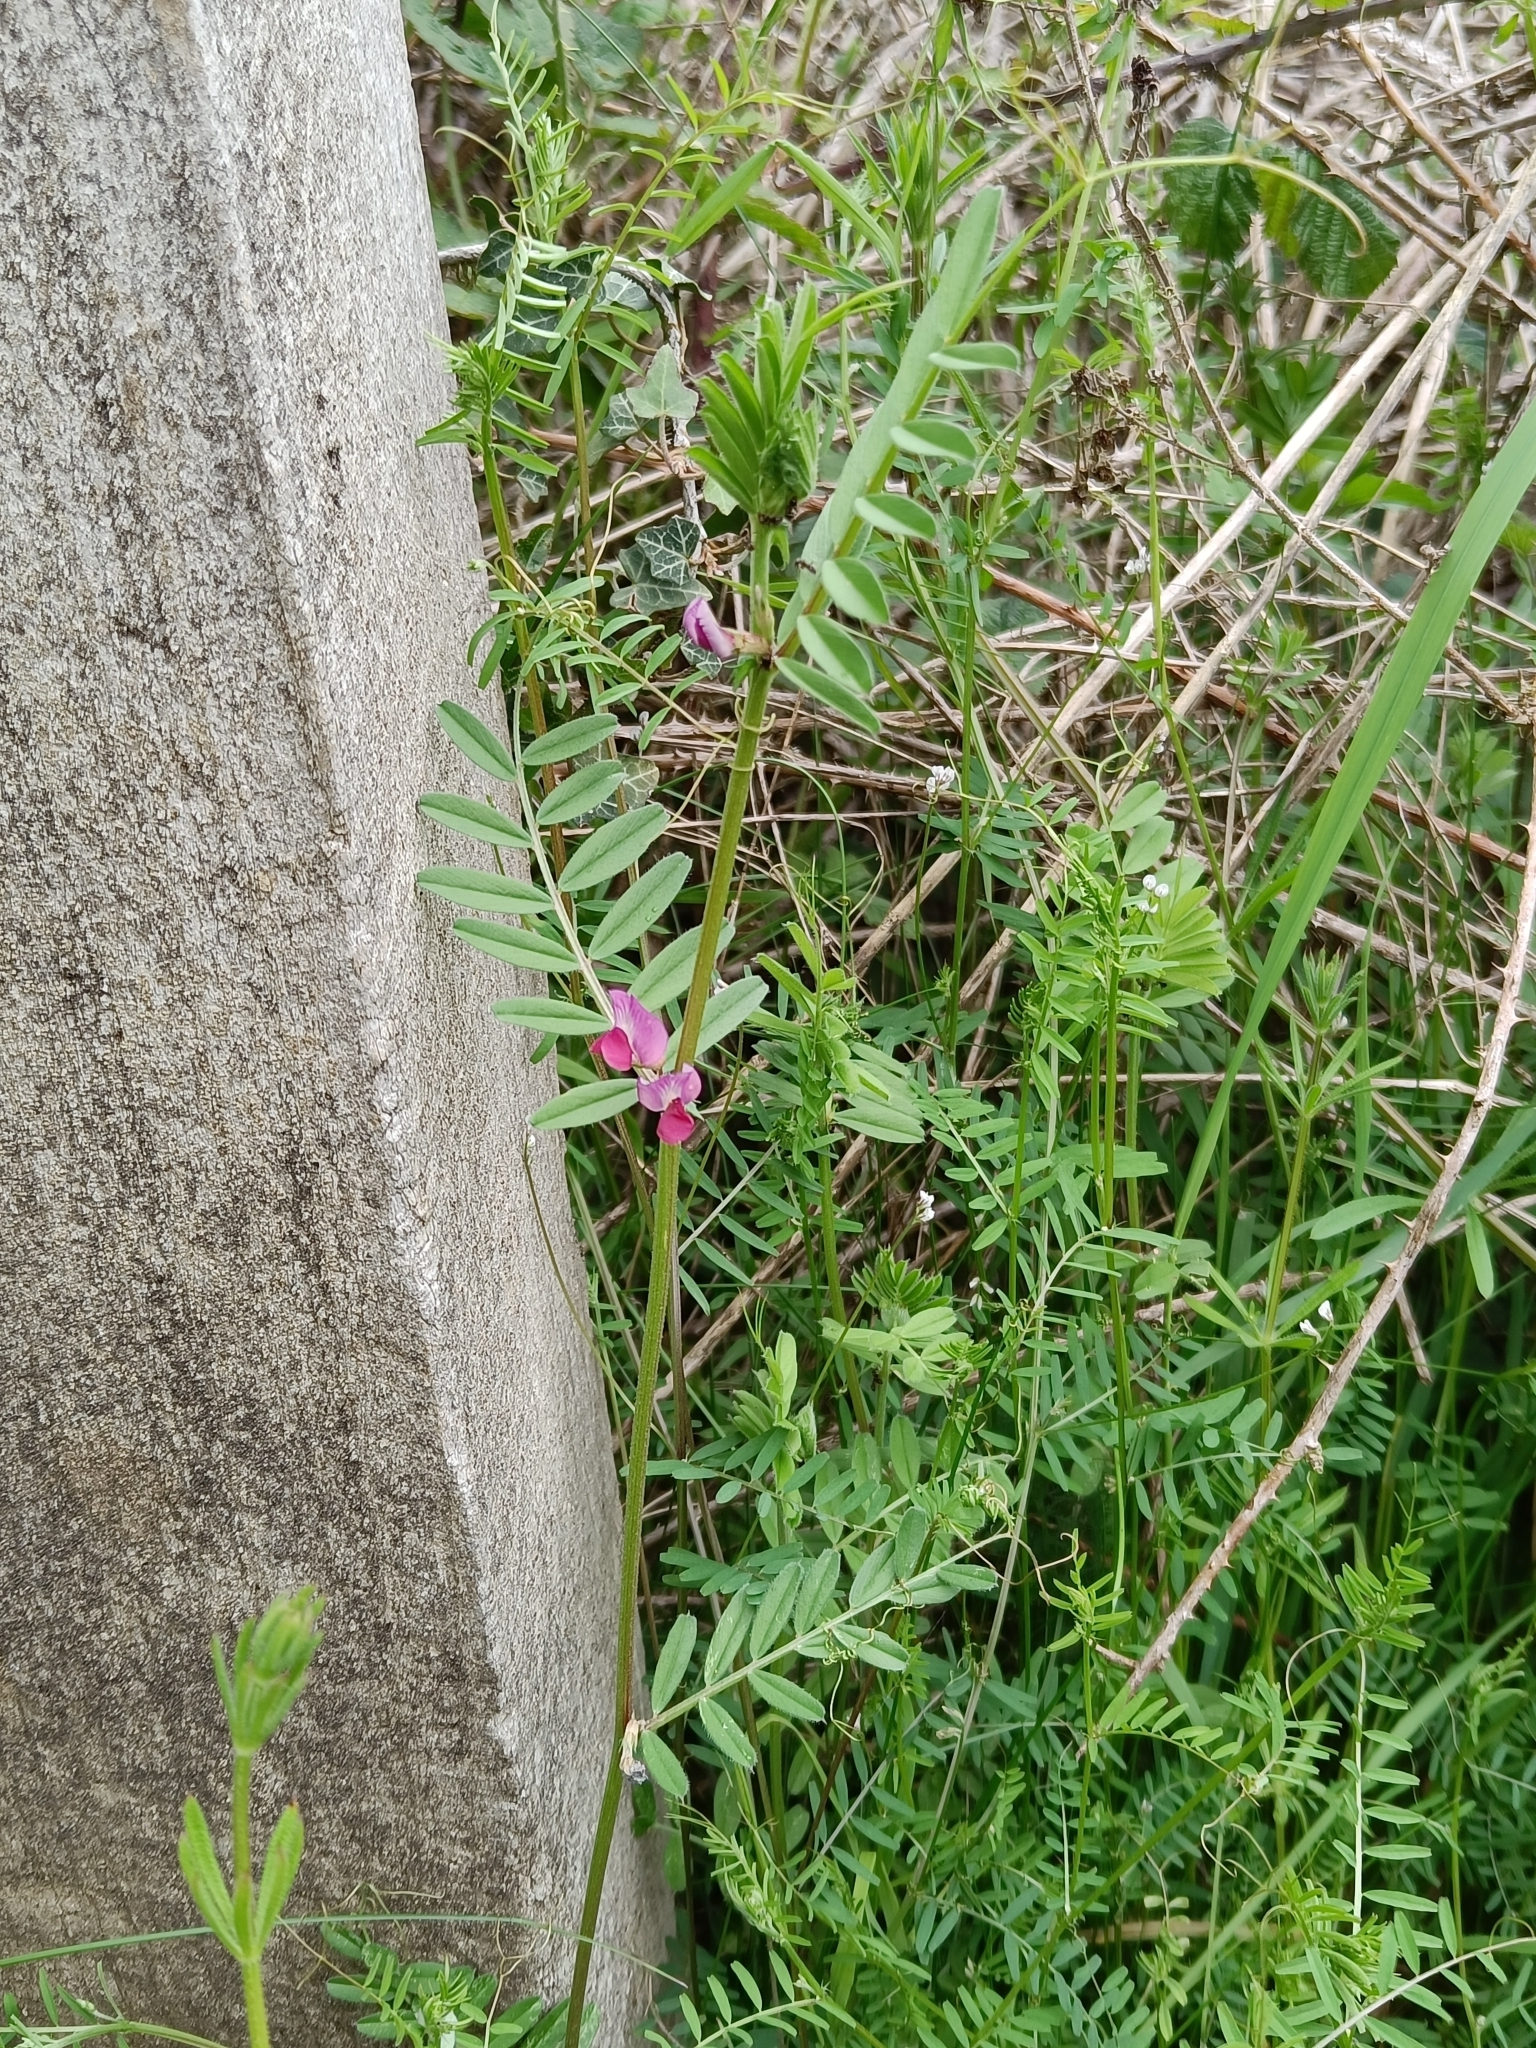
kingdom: Plantae
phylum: Tracheophyta
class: Magnoliopsida
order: Fabales
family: Fabaceae
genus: Vicia
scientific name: Vicia sativa
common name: Garden vetch
